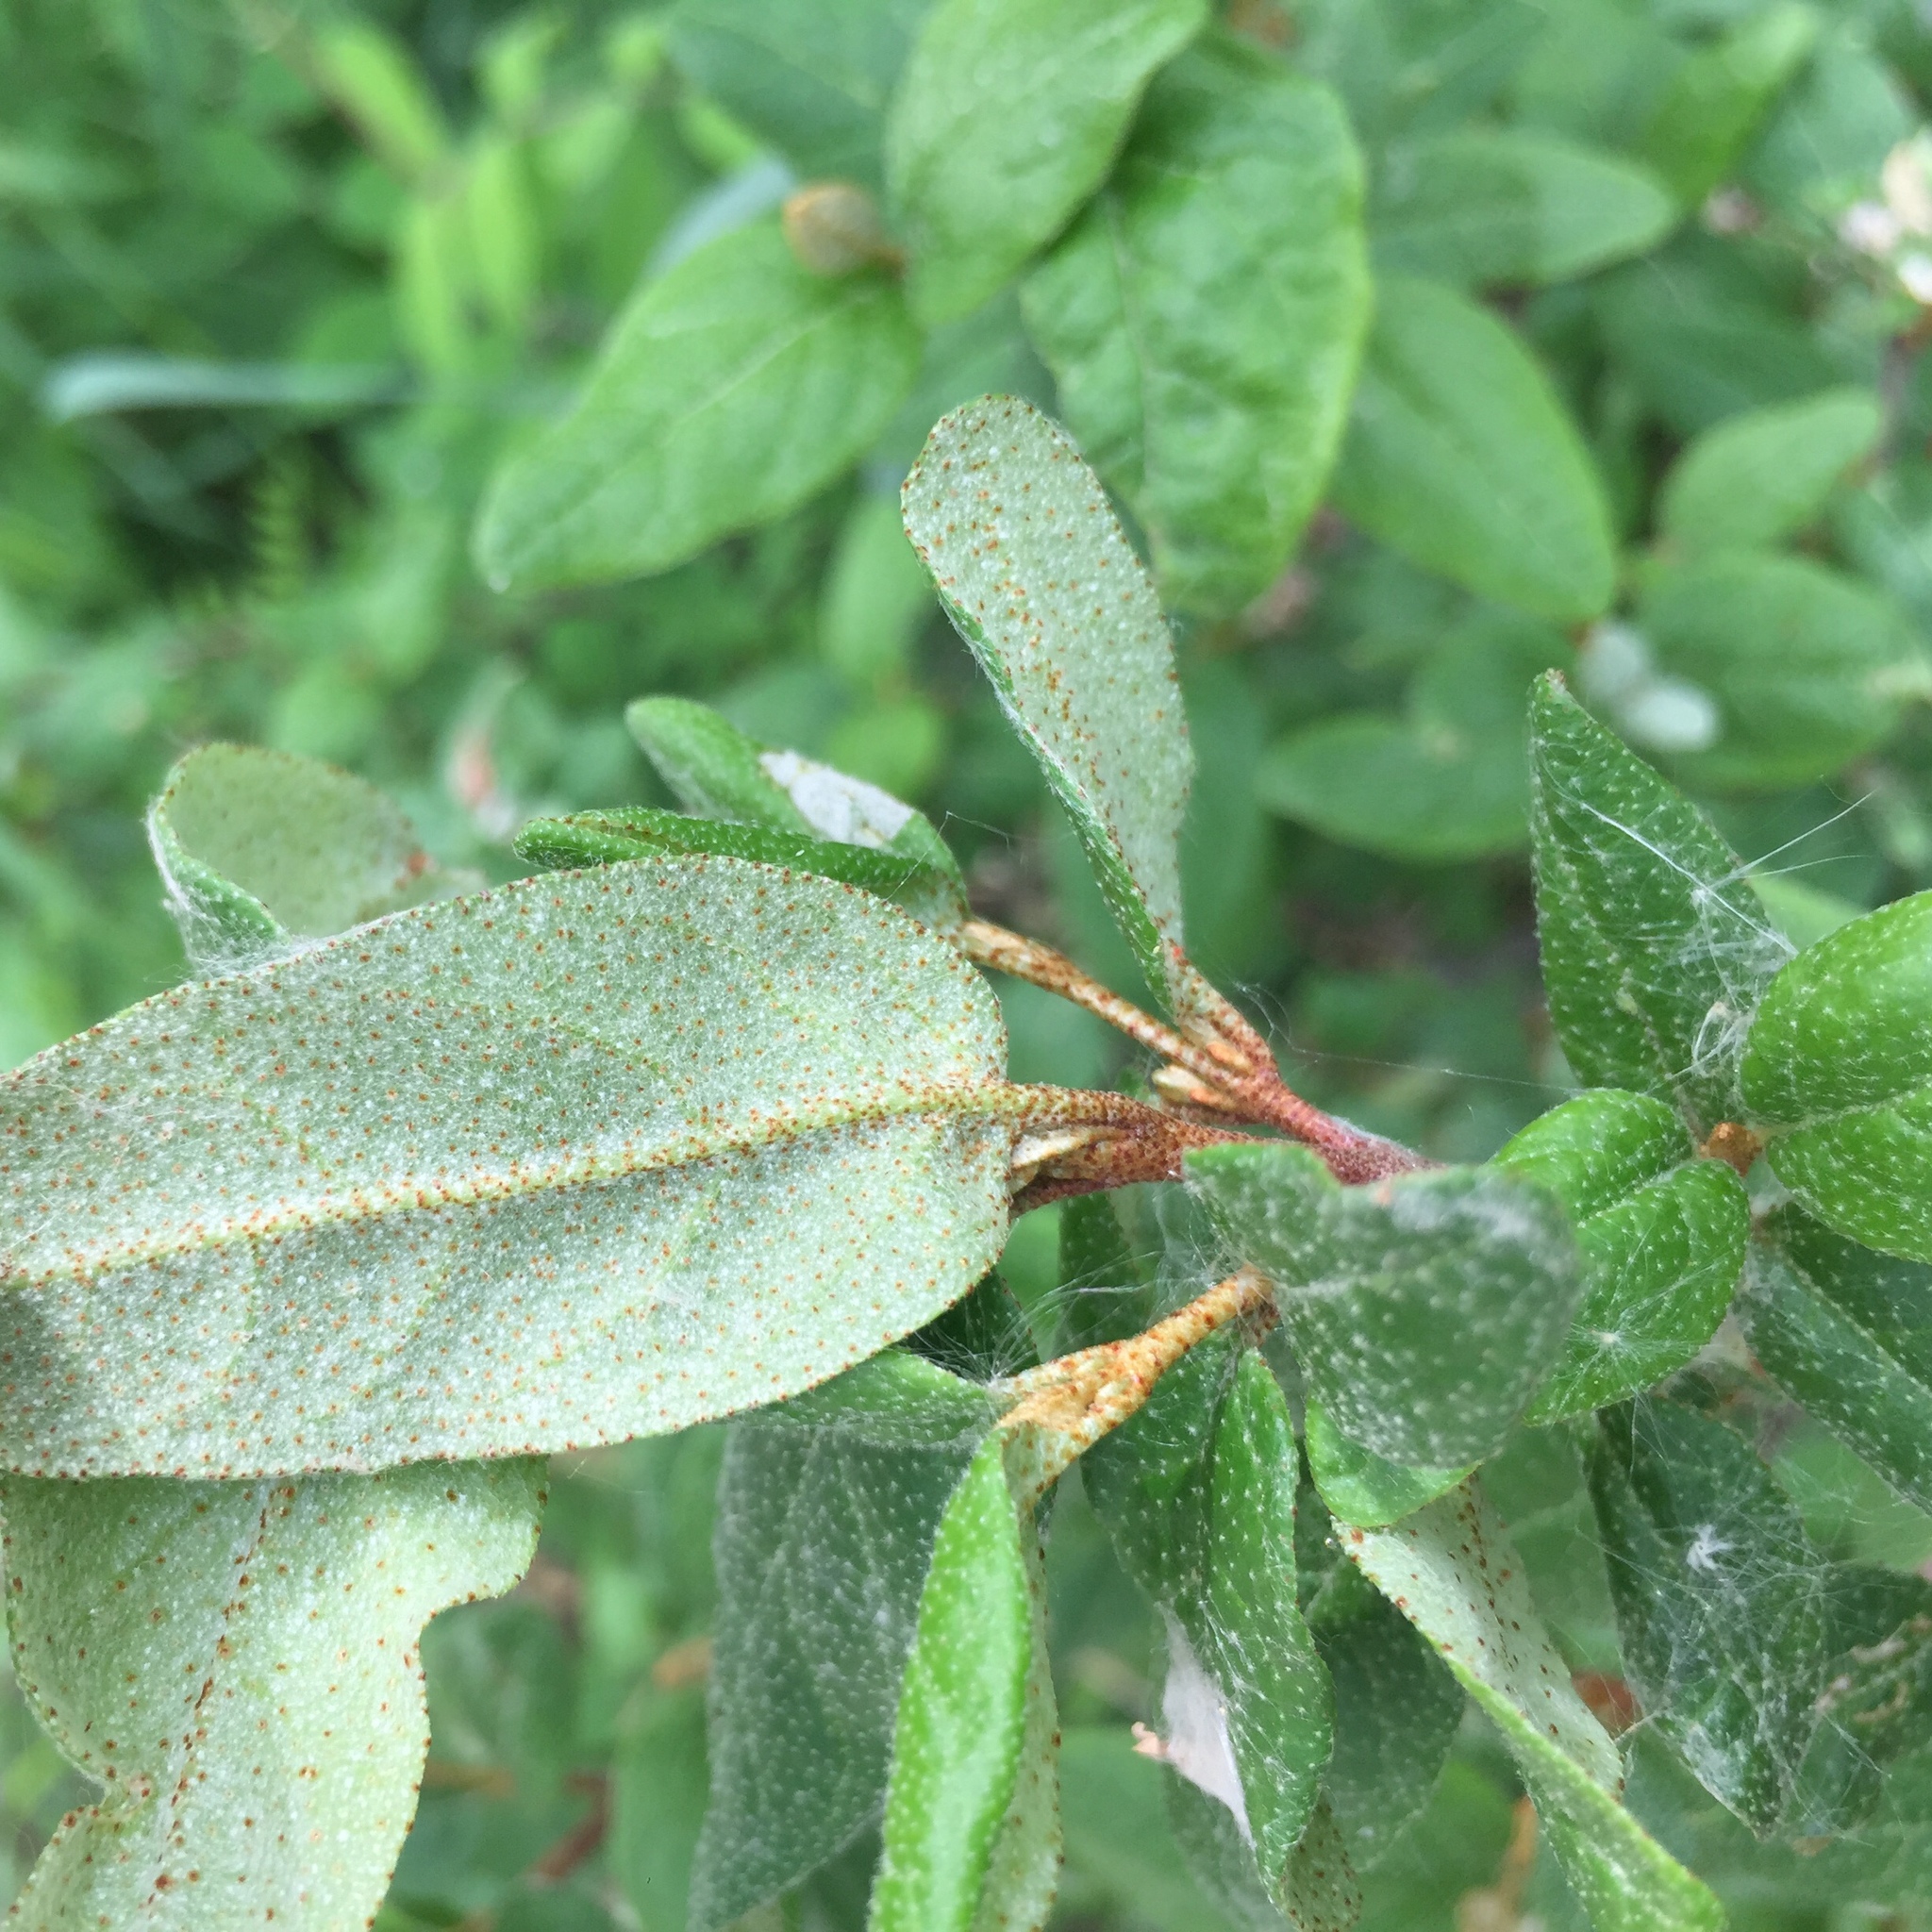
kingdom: Plantae
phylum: Tracheophyta
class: Magnoliopsida
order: Rosales
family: Elaeagnaceae
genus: Shepherdia
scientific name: Shepherdia canadensis
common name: Soapberry
